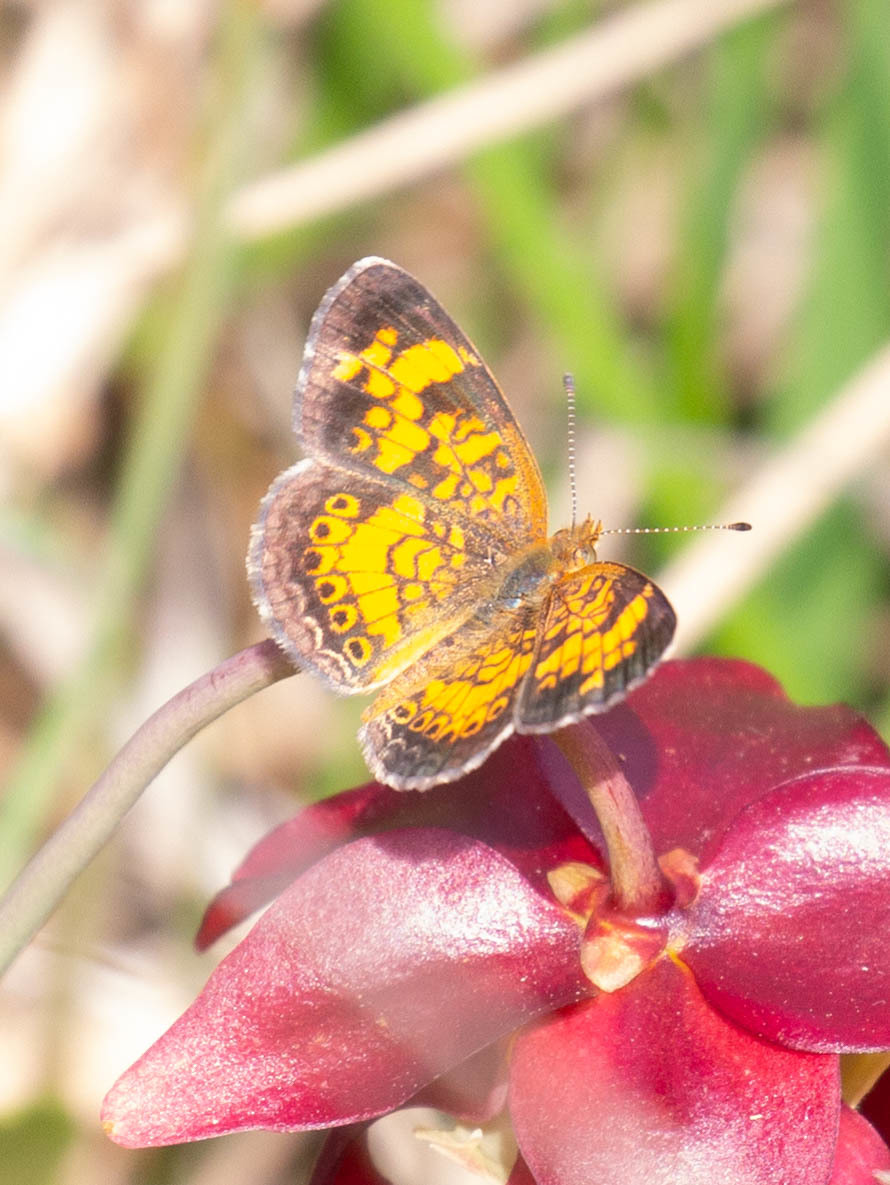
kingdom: Animalia
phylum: Arthropoda
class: Insecta
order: Lepidoptera
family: Nymphalidae
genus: Phyciodes
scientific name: Phyciodes tharos
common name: Pearl crescent
